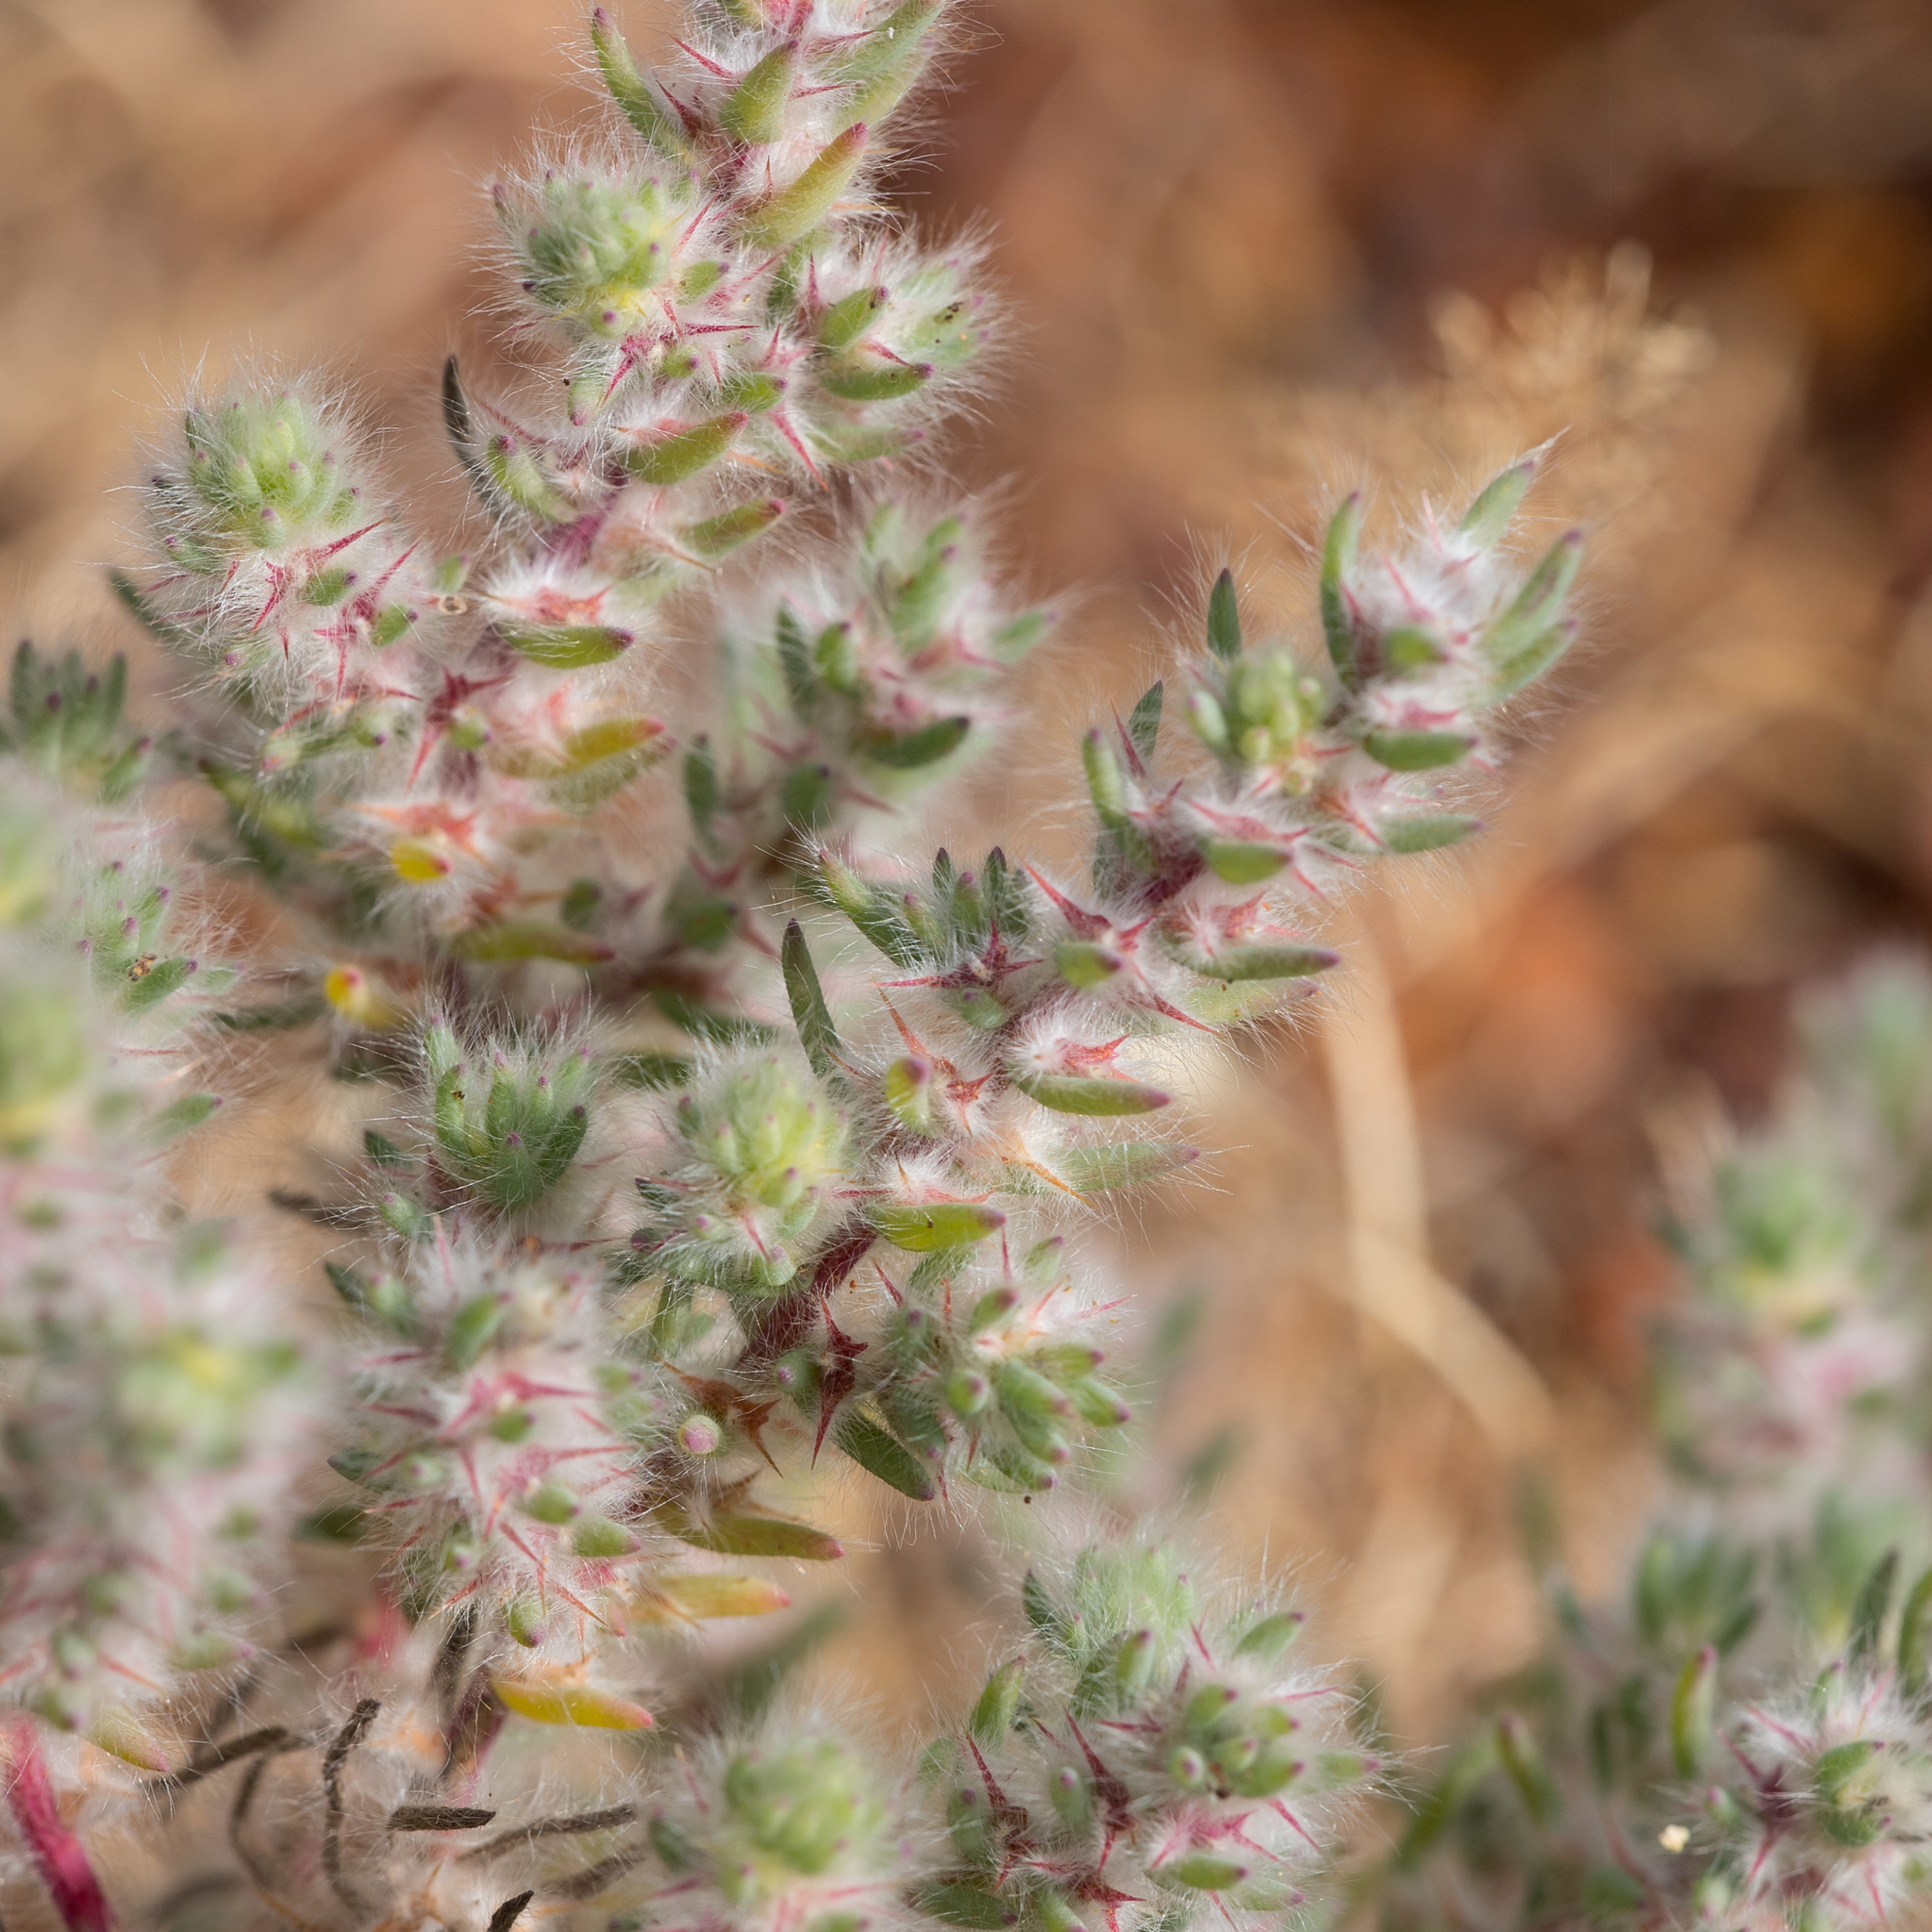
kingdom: Plantae
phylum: Tracheophyta
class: Magnoliopsida
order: Caryophyllales
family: Amaranthaceae
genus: Sclerolaena
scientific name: Sclerolaena lanicuspis
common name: Copperbur
